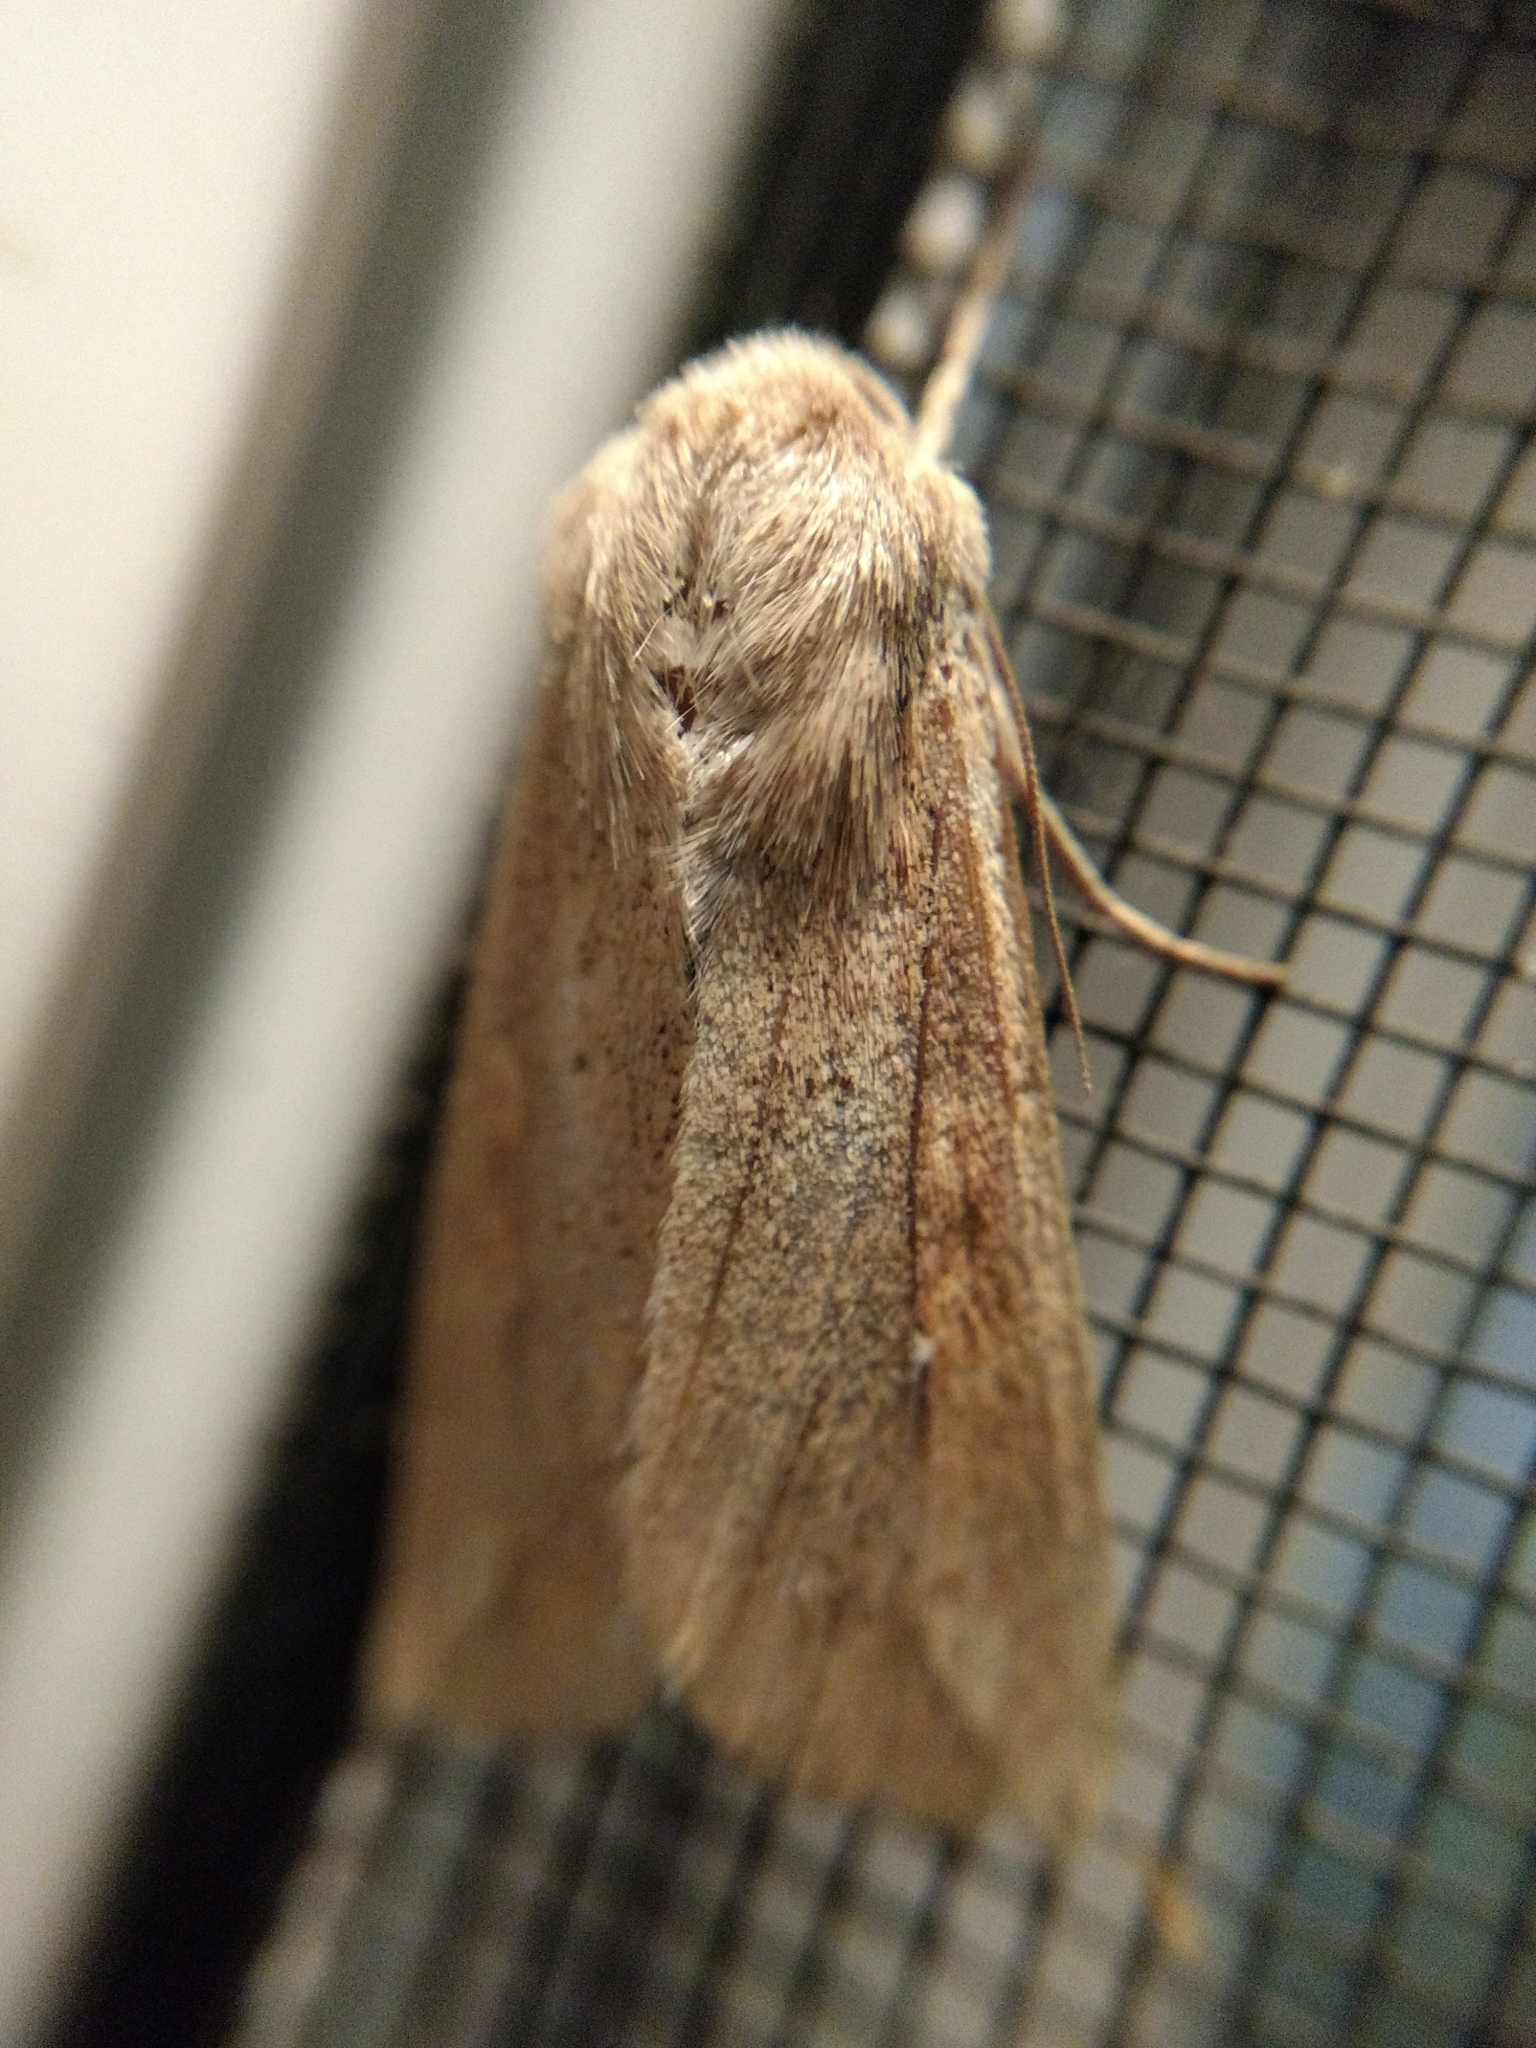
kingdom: Animalia
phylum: Arthropoda
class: Insecta
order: Lepidoptera
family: Noctuidae
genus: Mythimna
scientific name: Mythimna unipuncta
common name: White-speck
